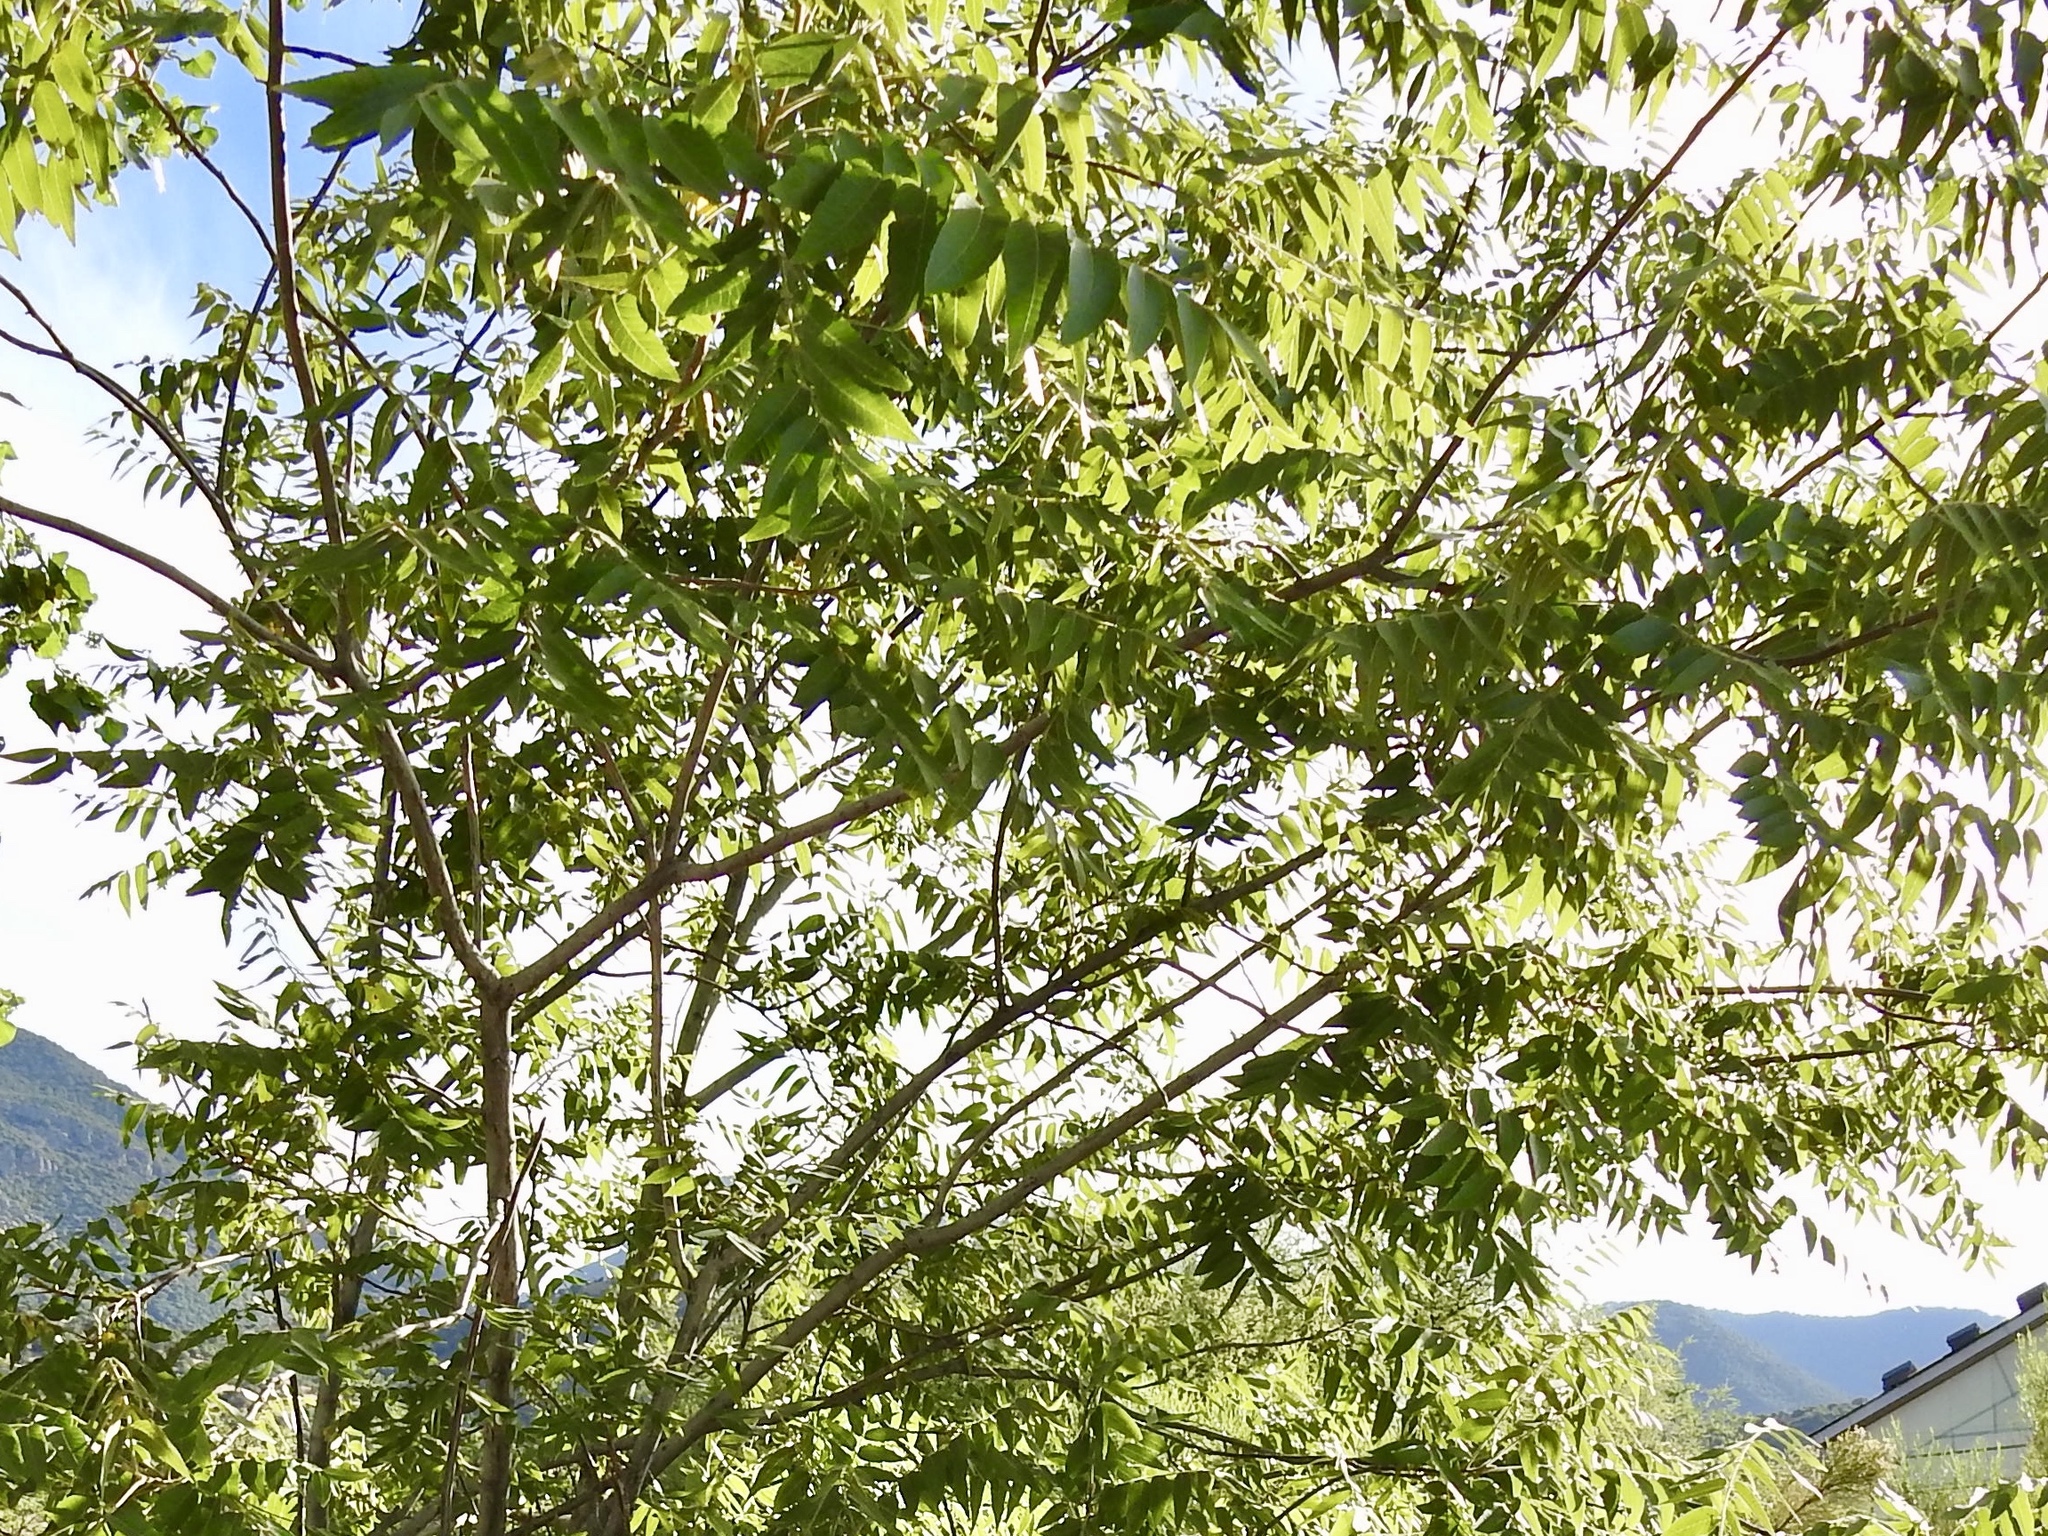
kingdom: Plantae
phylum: Tracheophyta
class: Magnoliopsida
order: Fagales
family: Juglandaceae
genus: Juglans
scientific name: Juglans major
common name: Arizona walnut
